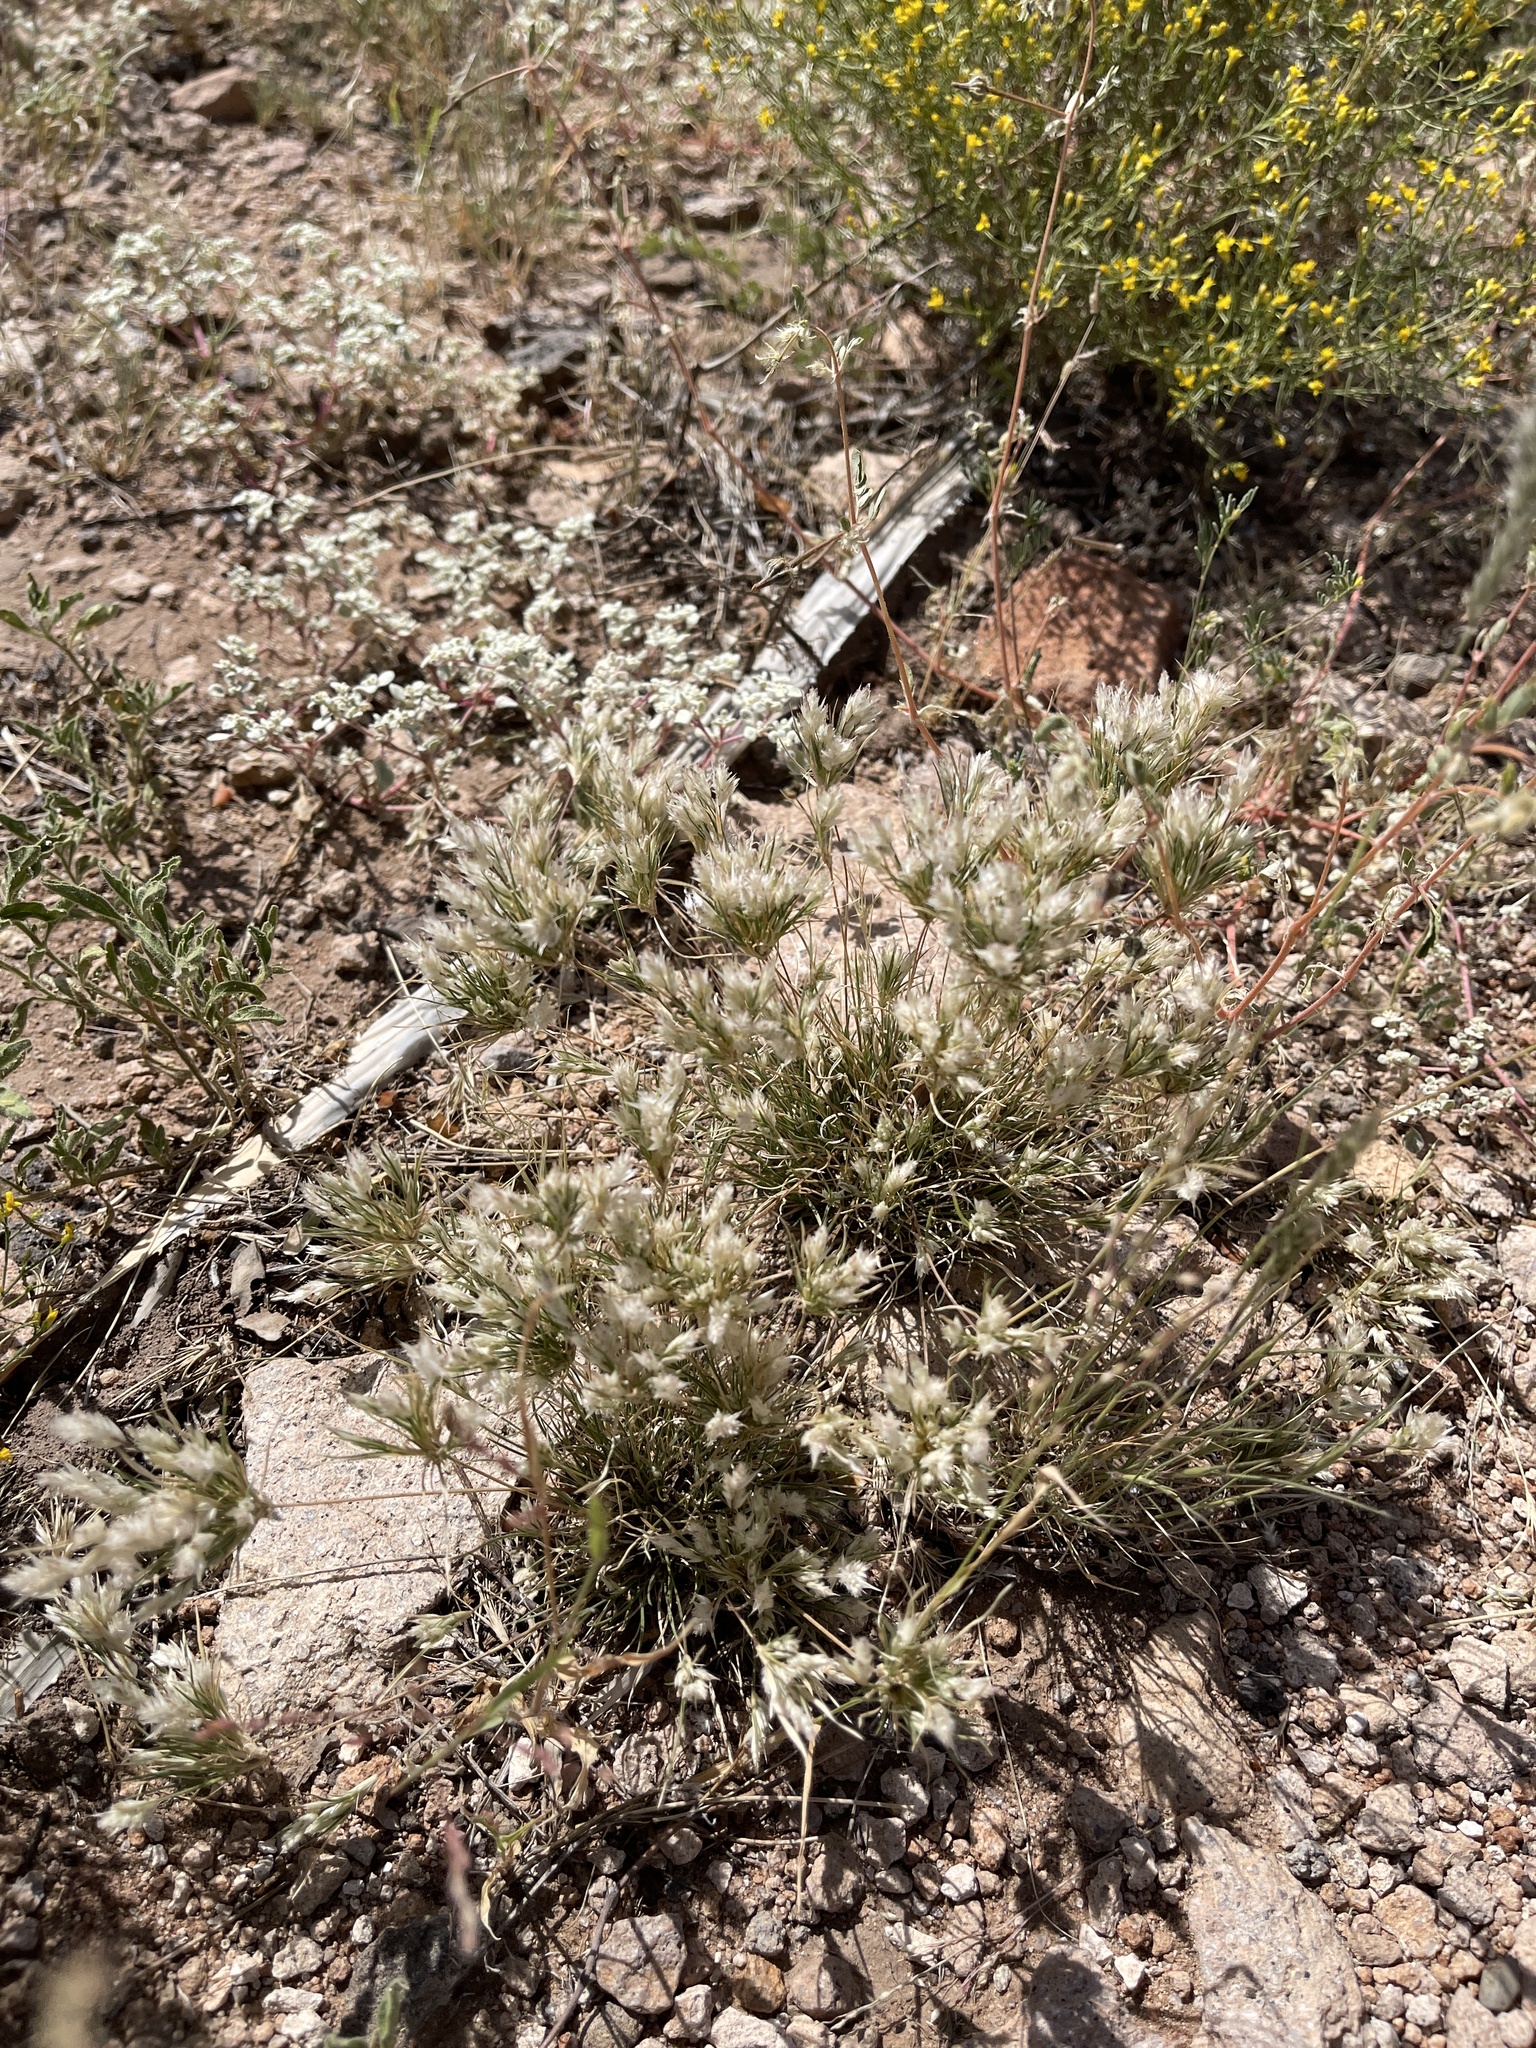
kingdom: Plantae
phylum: Tracheophyta
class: Liliopsida
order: Poales
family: Poaceae
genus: Dasyochloa
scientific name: Dasyochloa pulchella
